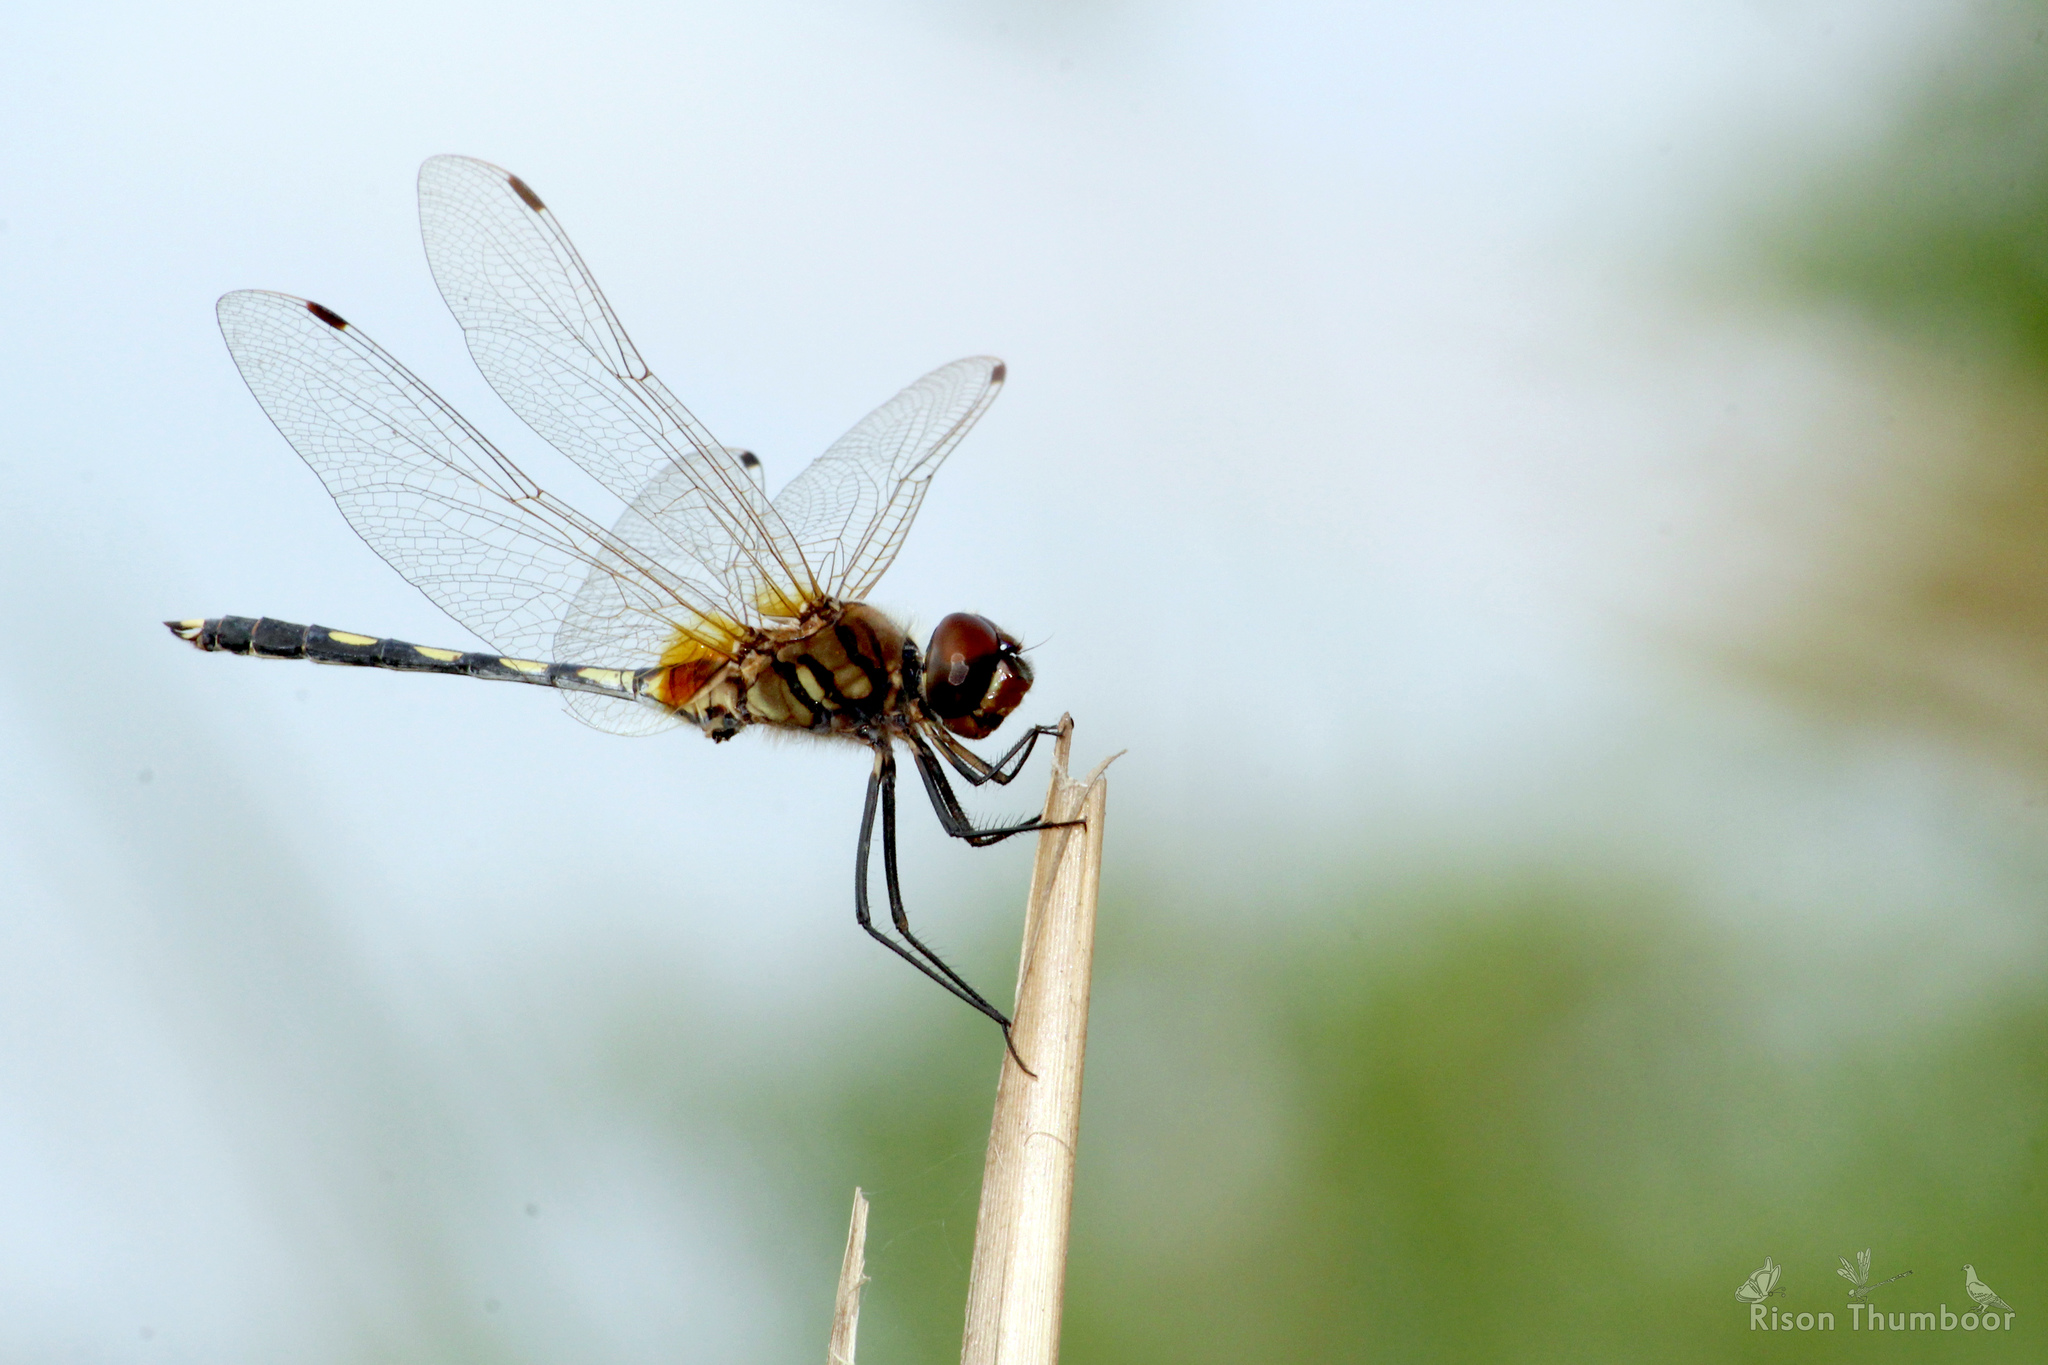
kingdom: Animalia
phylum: Arthropoda
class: Insecta
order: Odonata
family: Libellulidae
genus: Trithemis
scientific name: Trithemis pallidinervis
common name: Dancing dropwing
